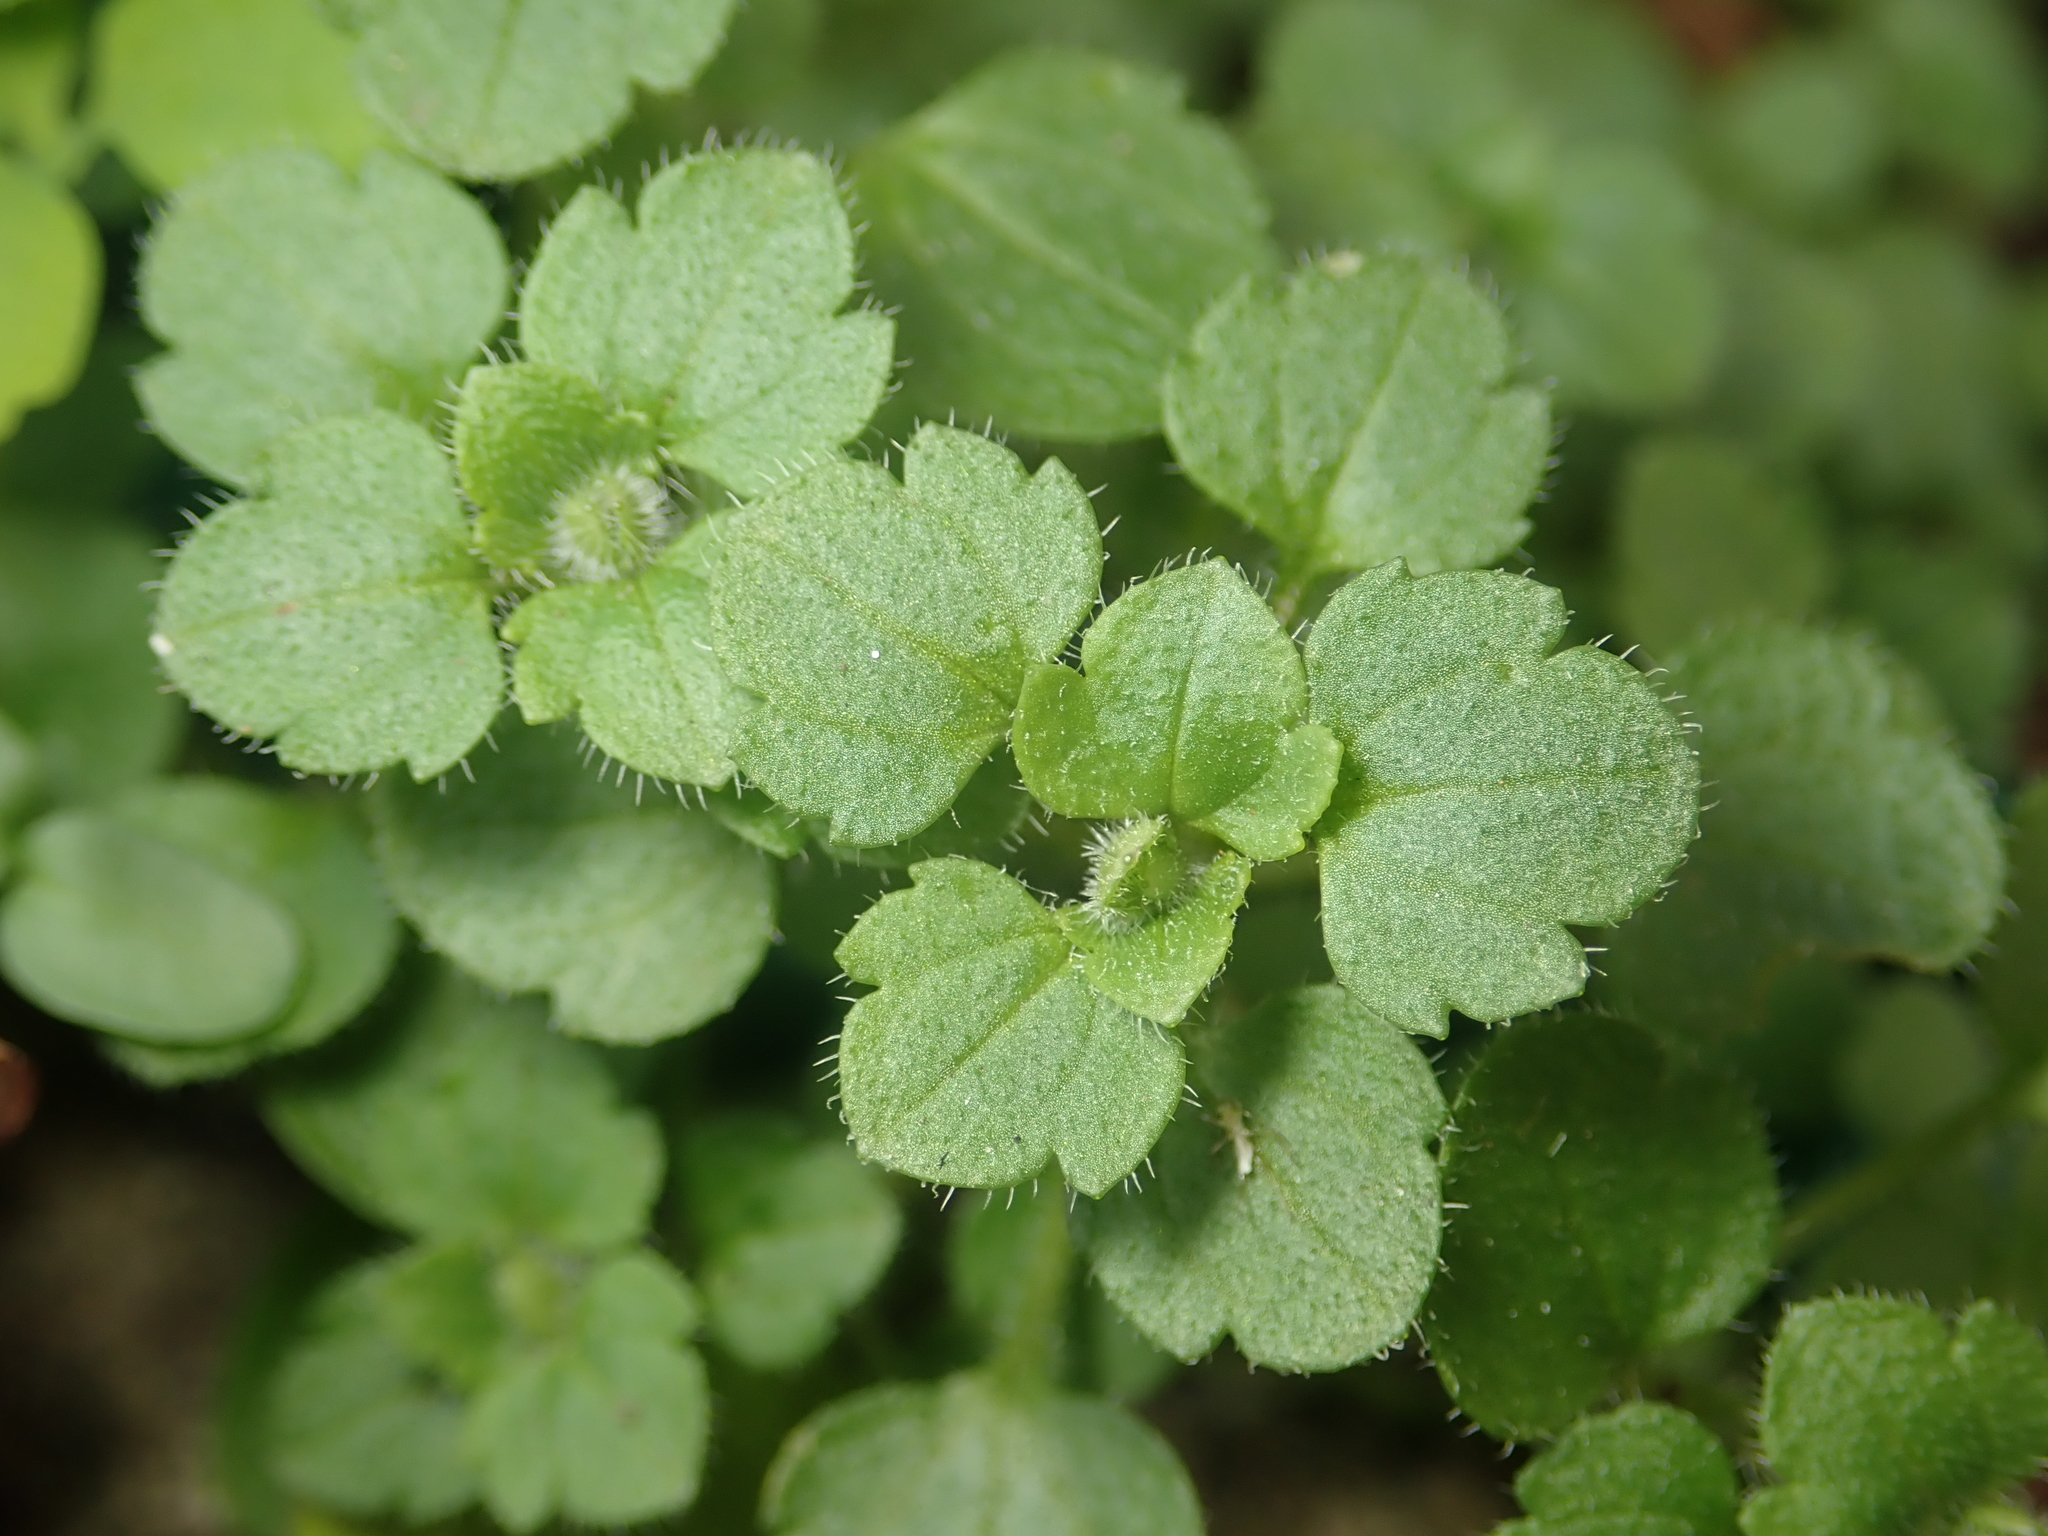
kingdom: Plantae
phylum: Tracheophyta
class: Magnoliopsida
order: Lamiales
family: Plantaginaceae
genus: Veronica
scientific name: Veronica hederifolia
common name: Ivy-leaved speedwell
